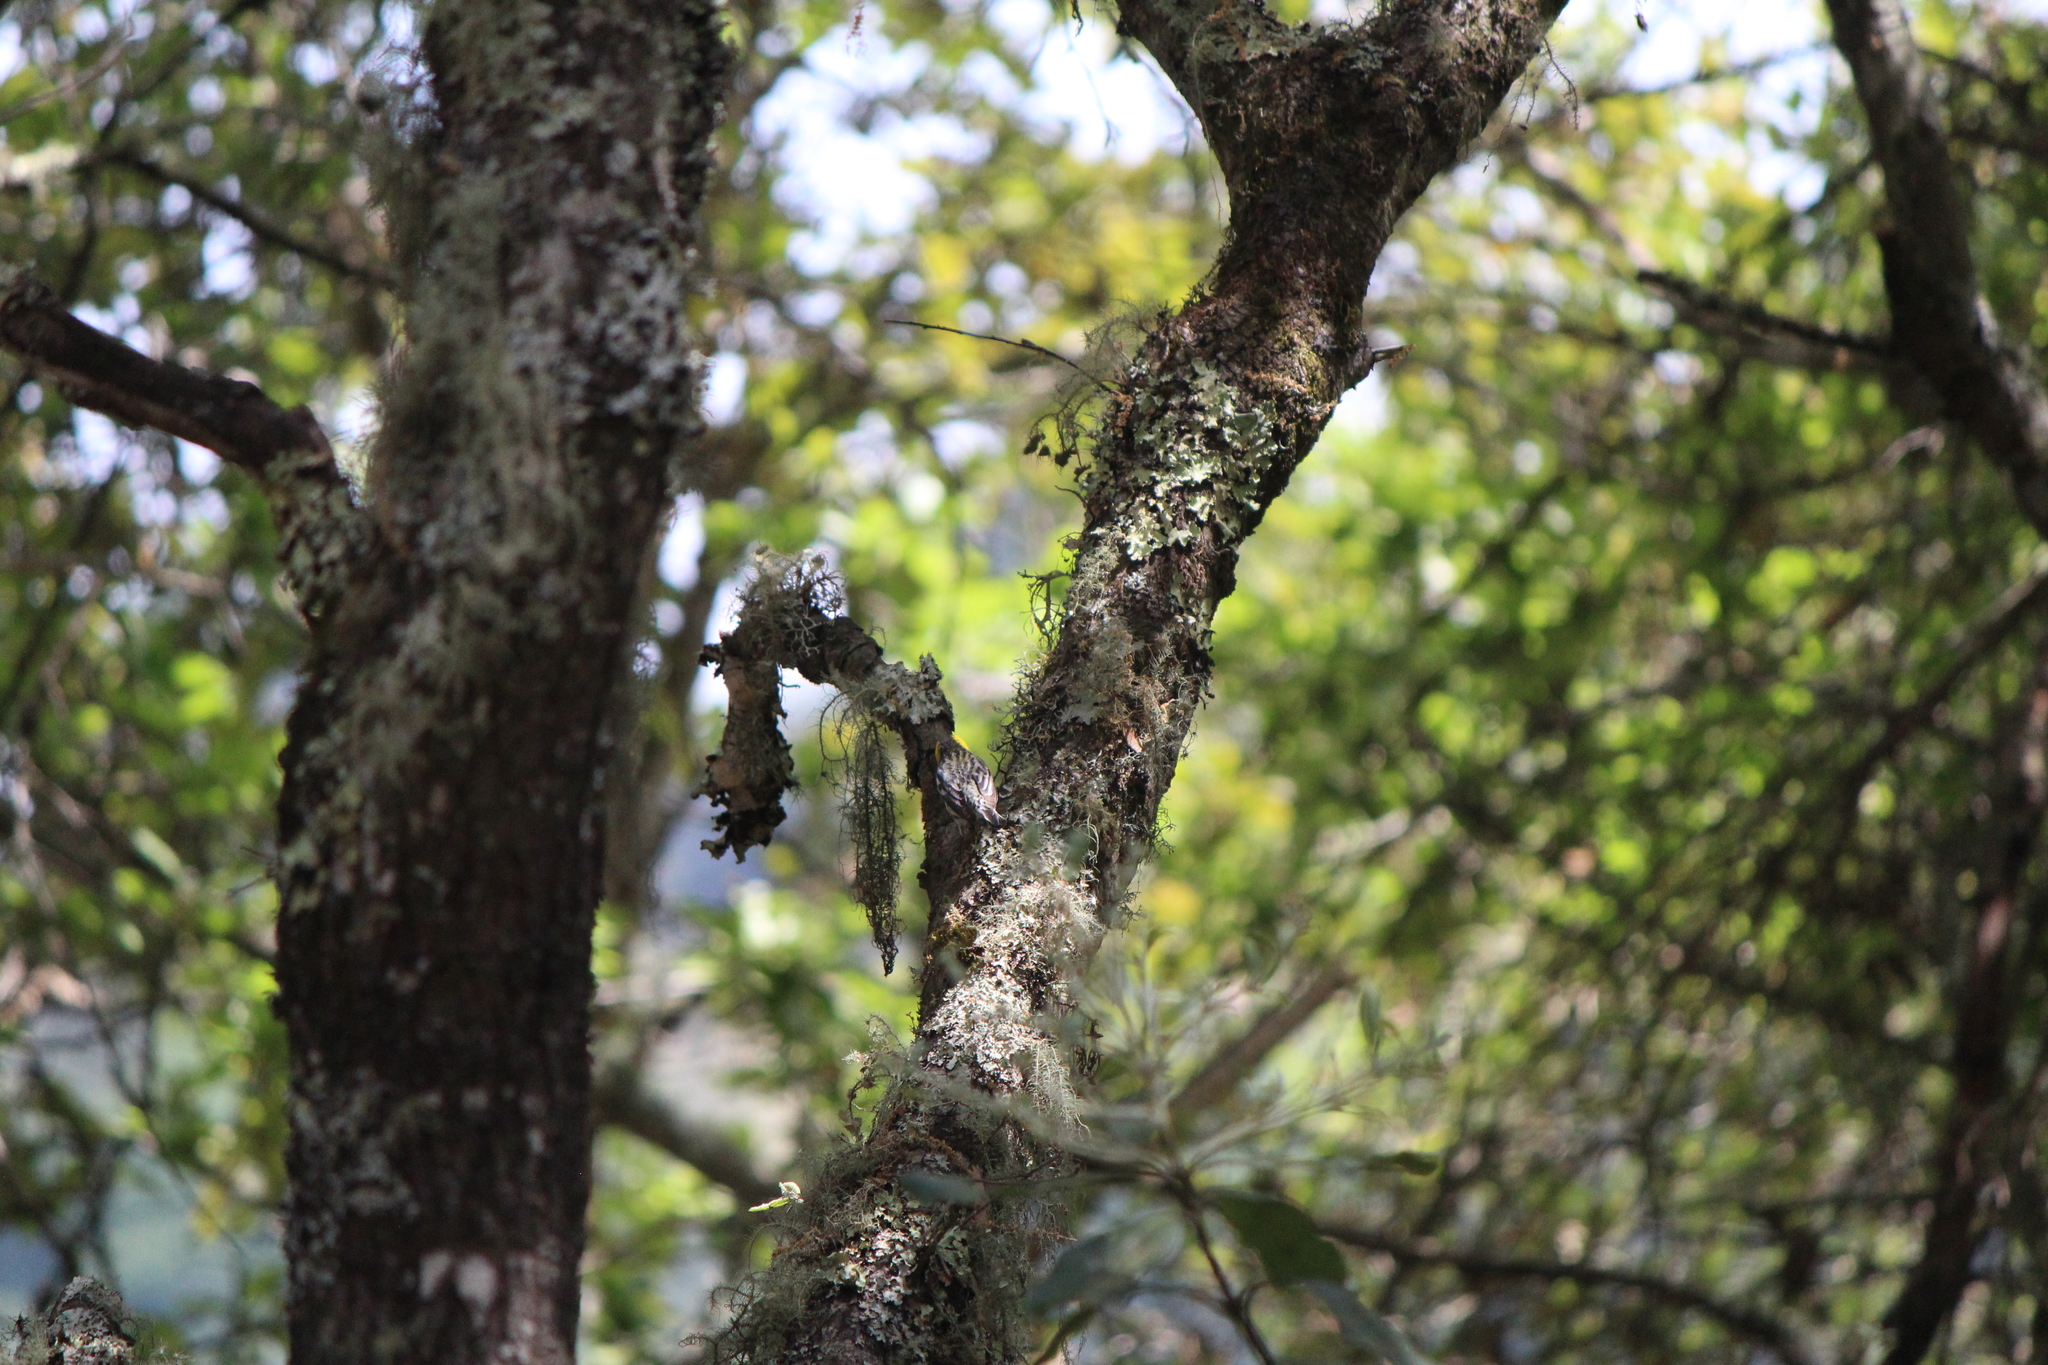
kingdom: Animalia
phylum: Chordata
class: Aves
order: Passeriformes
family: Parulidae
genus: Setophaga
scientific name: Setophaga townsendi
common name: Townsend's warbler
